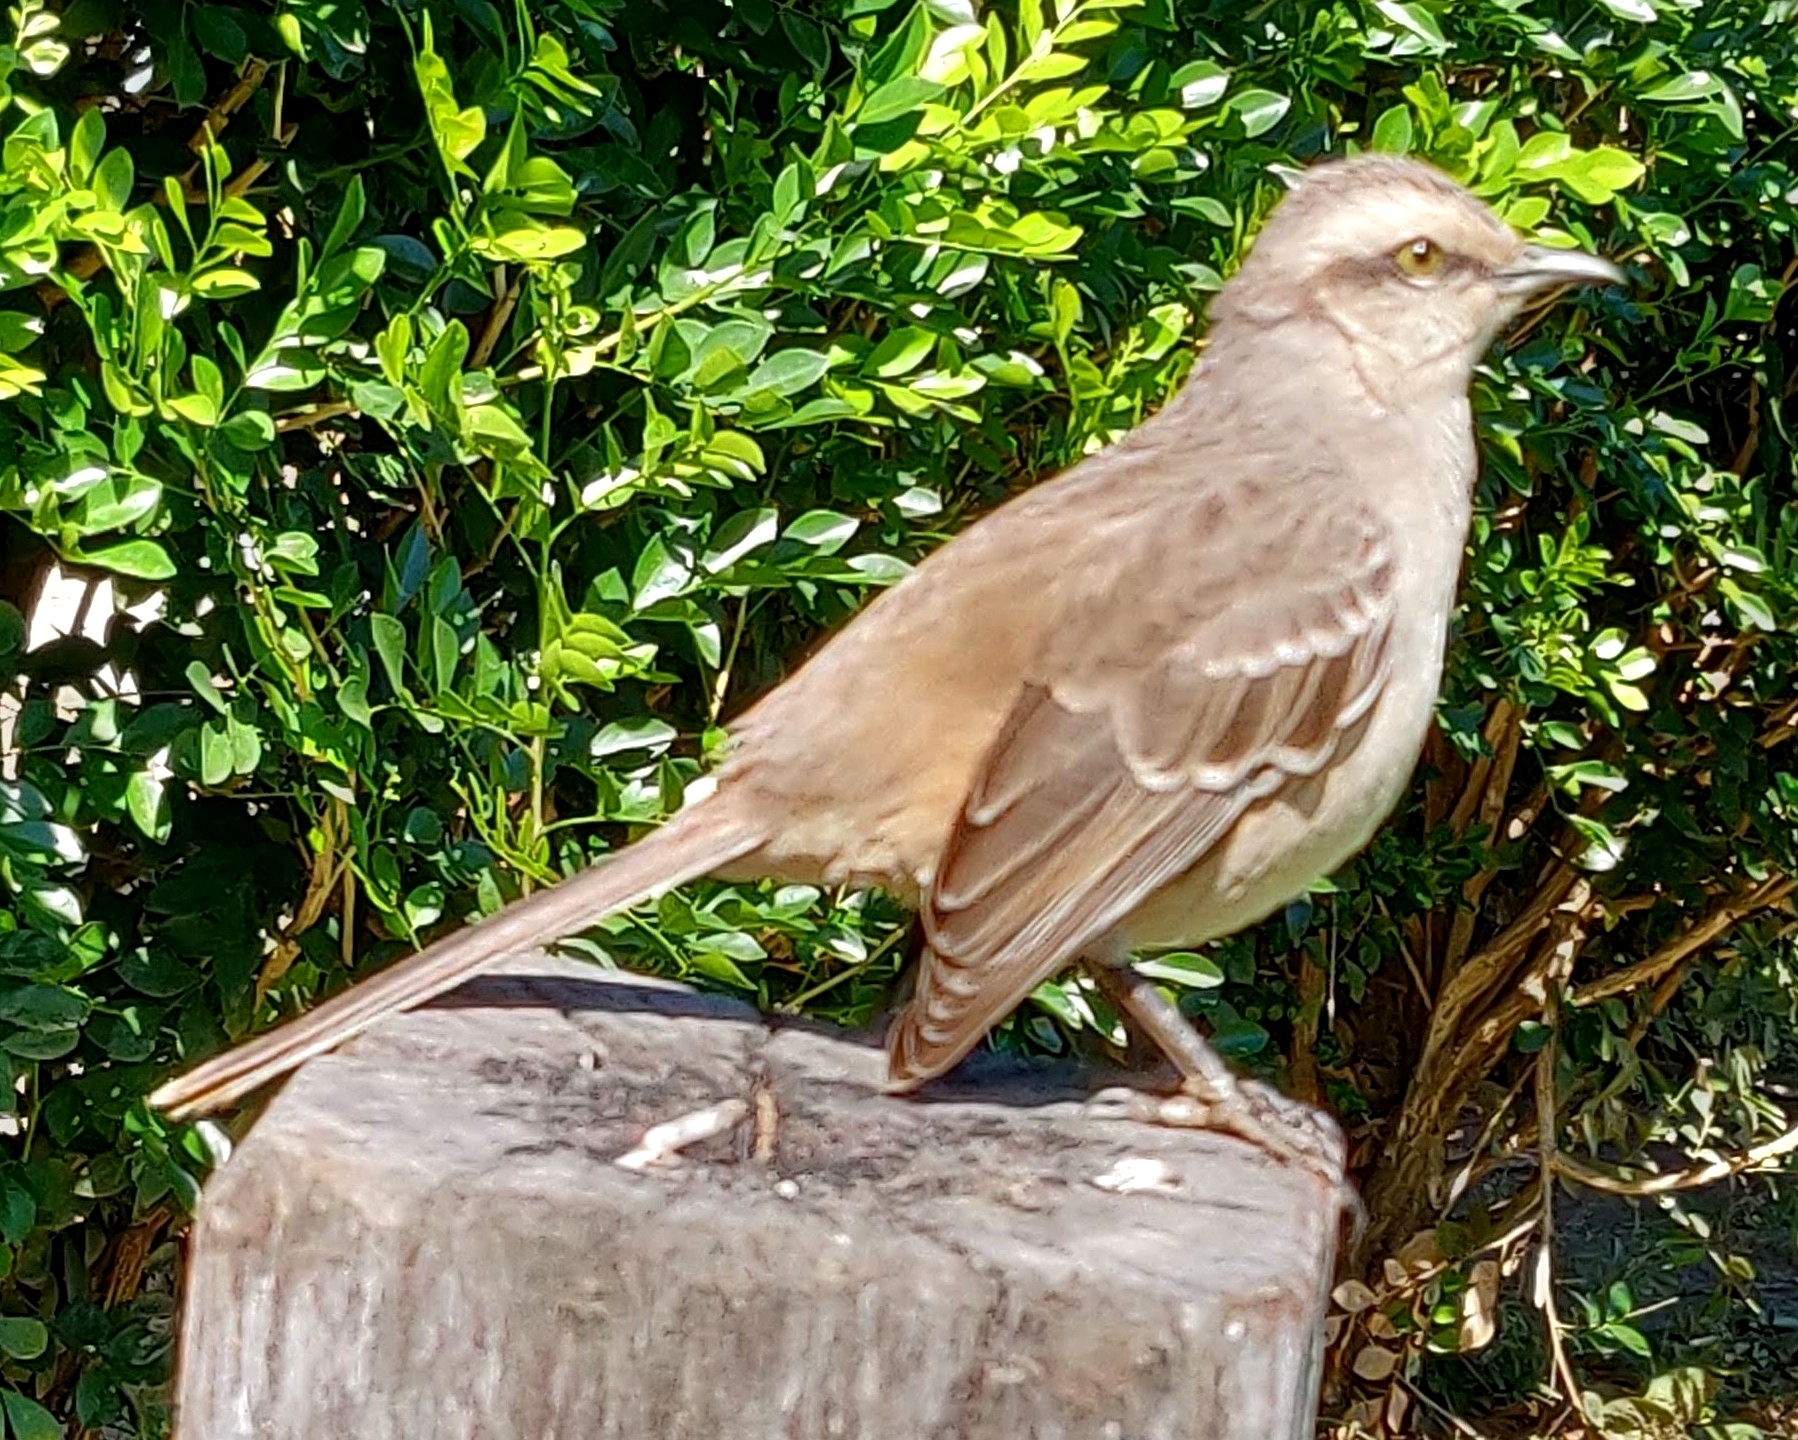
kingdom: Animalia
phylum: Chordata
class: Aves
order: Passeriformes
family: Mimidae
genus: Mimus
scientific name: Mimus saturninus
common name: Chalk-browed mockingbird
